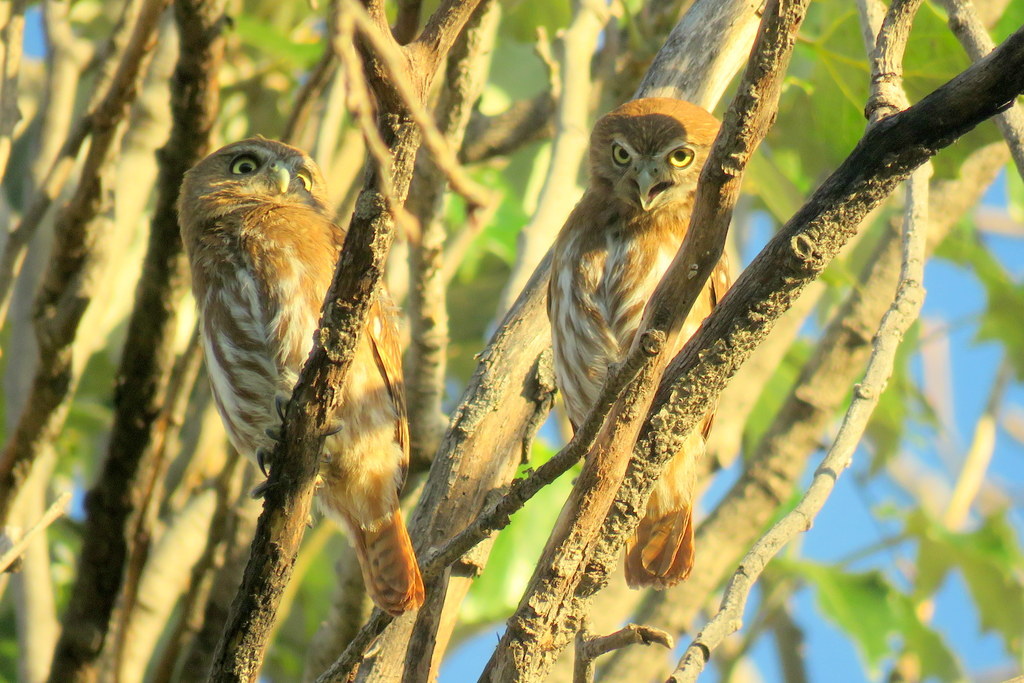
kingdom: Animalia
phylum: Chordata
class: Aves
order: Strigiformes
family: Strigidae
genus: Glaucidium
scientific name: Glaucidium brasilianum
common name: Ferruginous pygmy-owl
